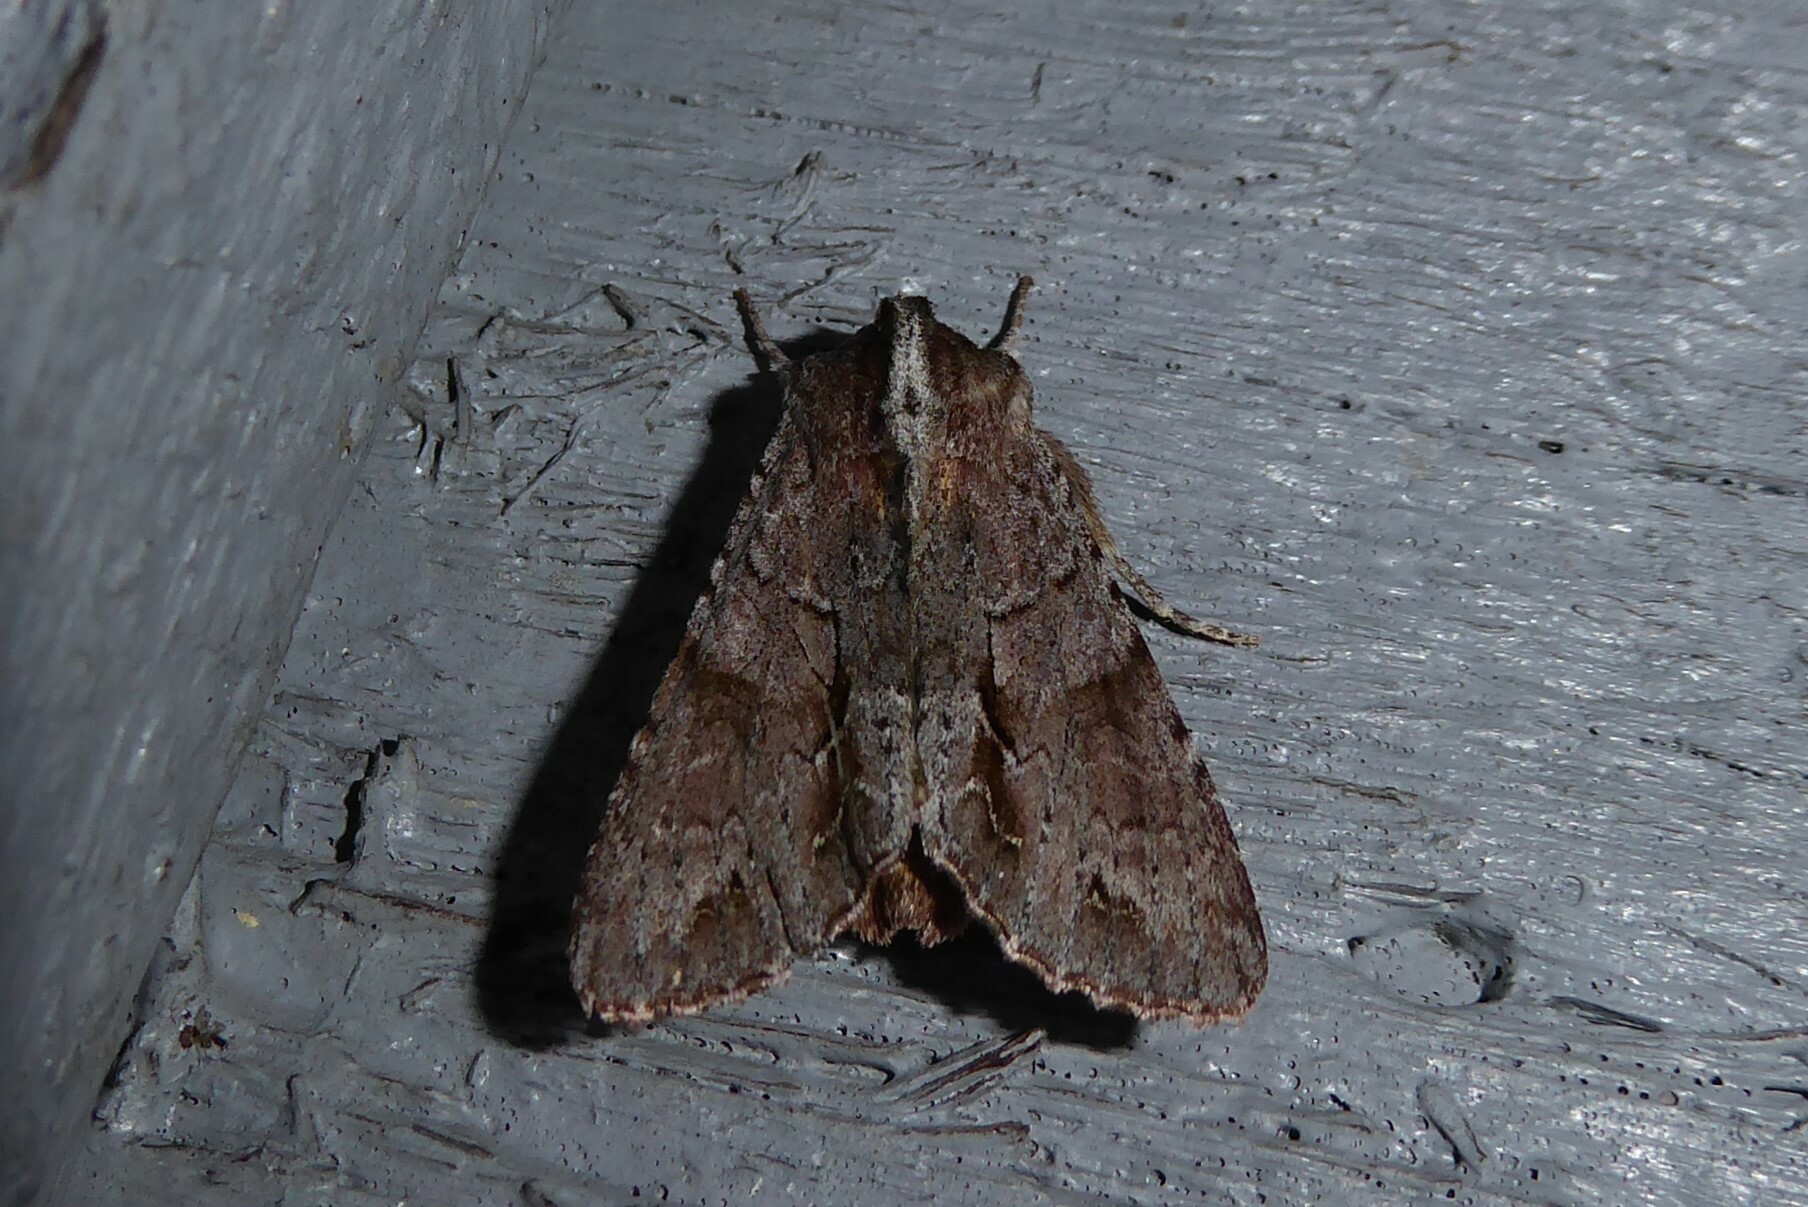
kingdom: Animalia
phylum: Arthropoda
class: Insecta
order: Lepidoptera
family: Noctuidae
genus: Ichneutica
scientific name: Ichneutica
